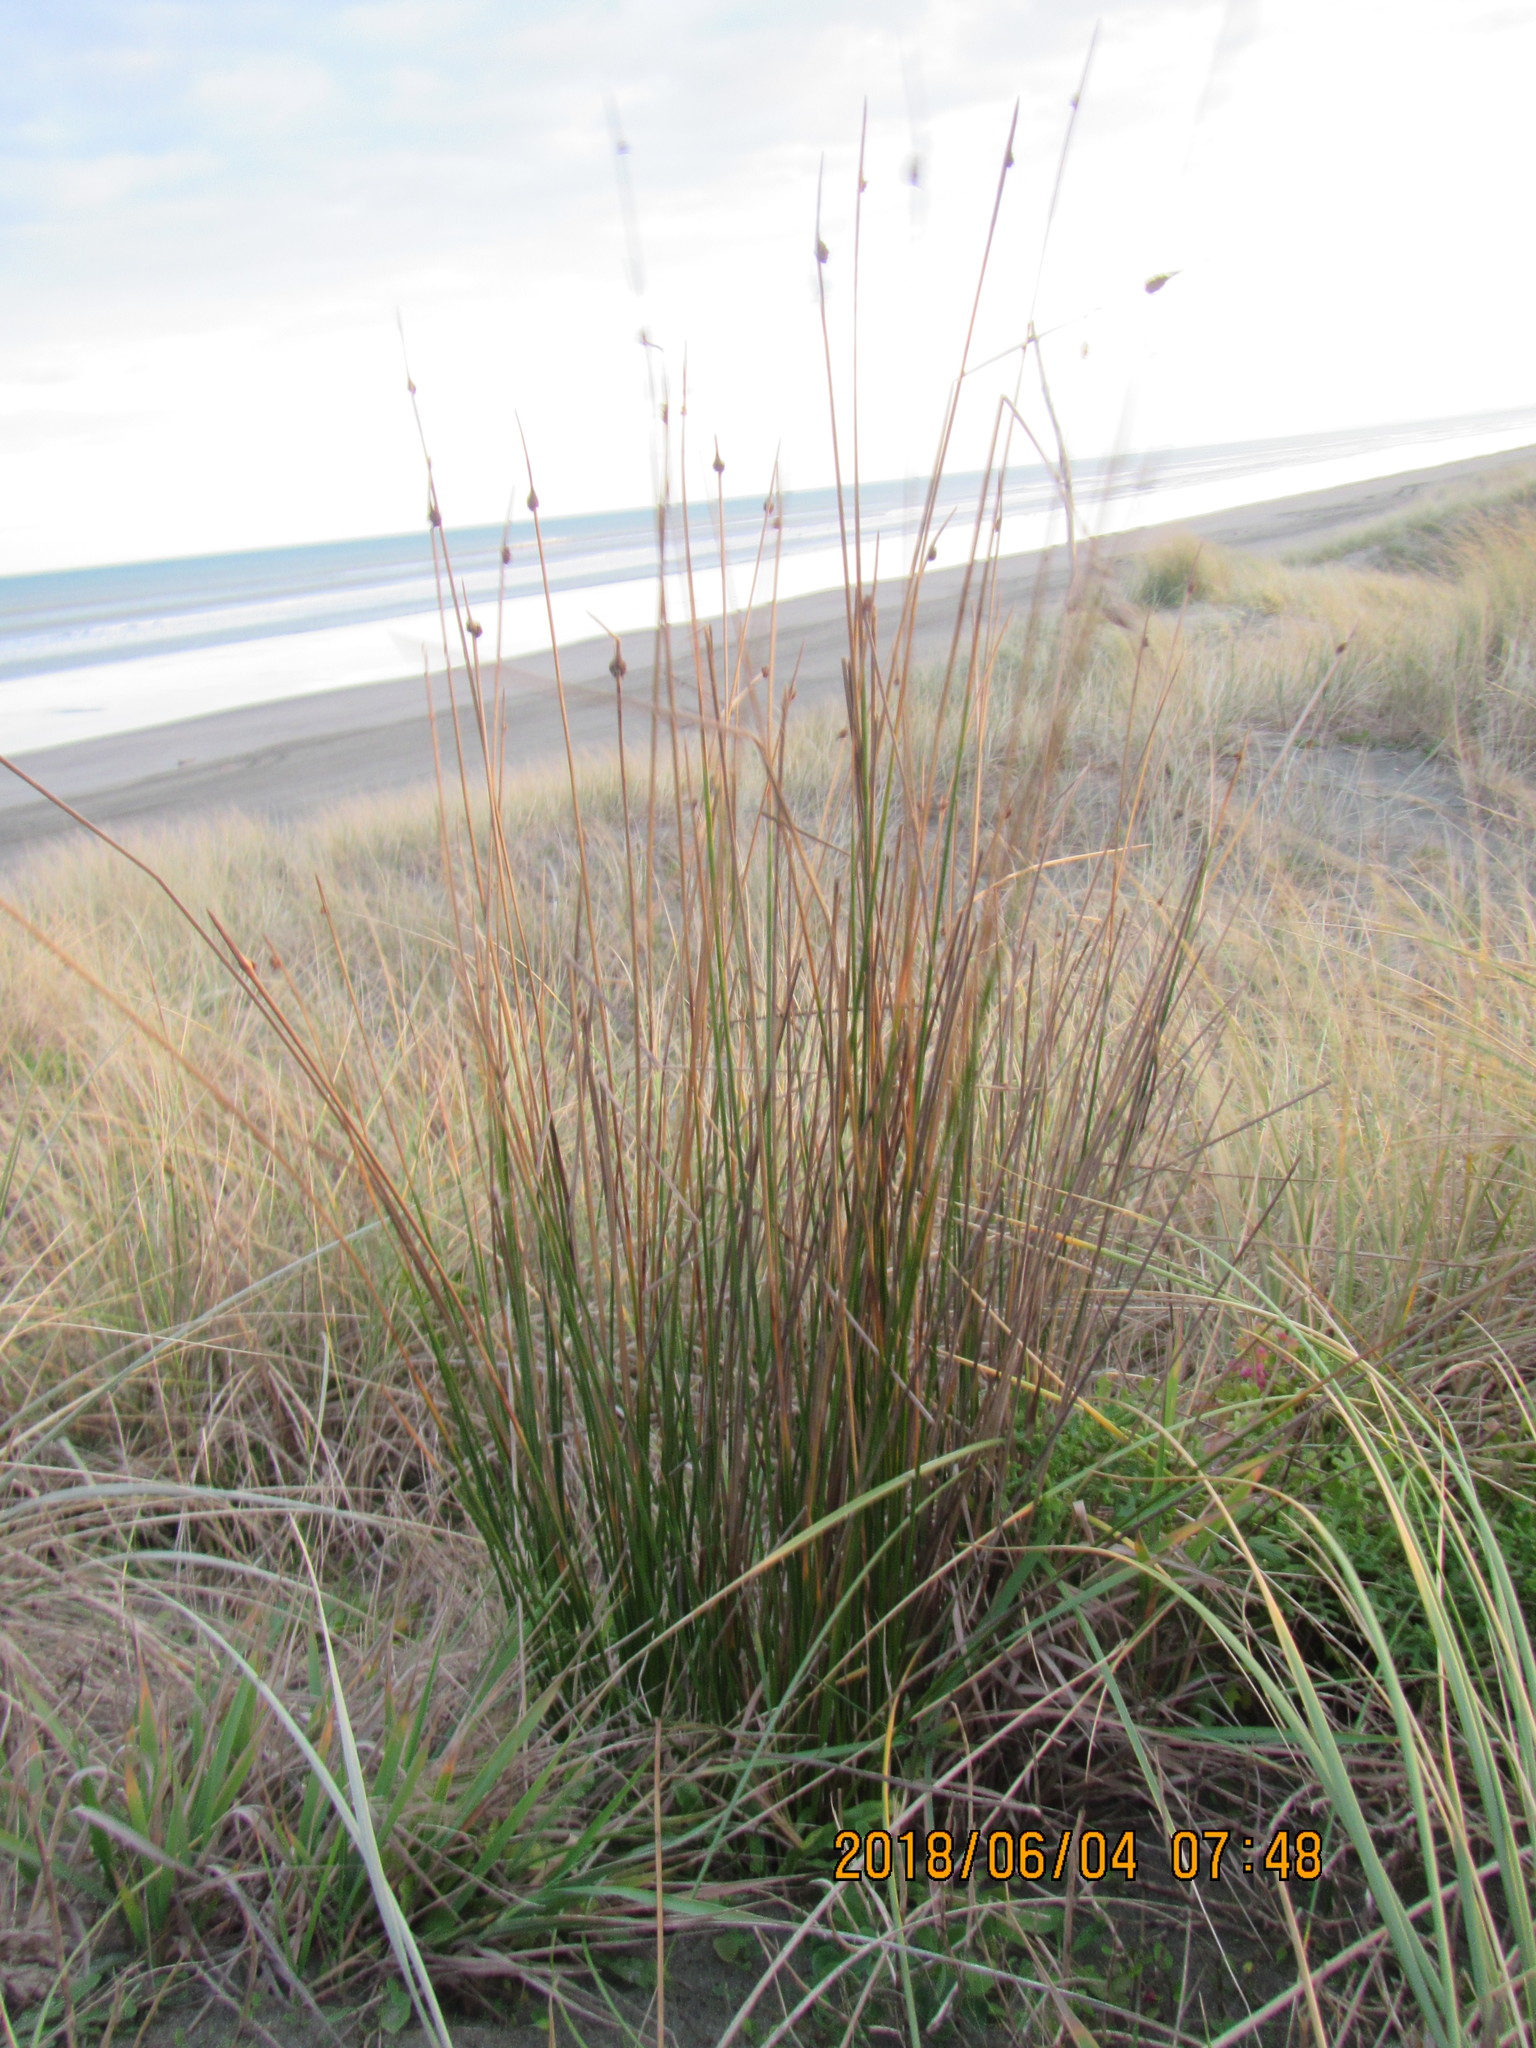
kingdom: Plantae
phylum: Tracheophyta
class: Liliopsida
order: Poales
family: Cyperaceae
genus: Ficinia
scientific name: Ficinia nodosa
